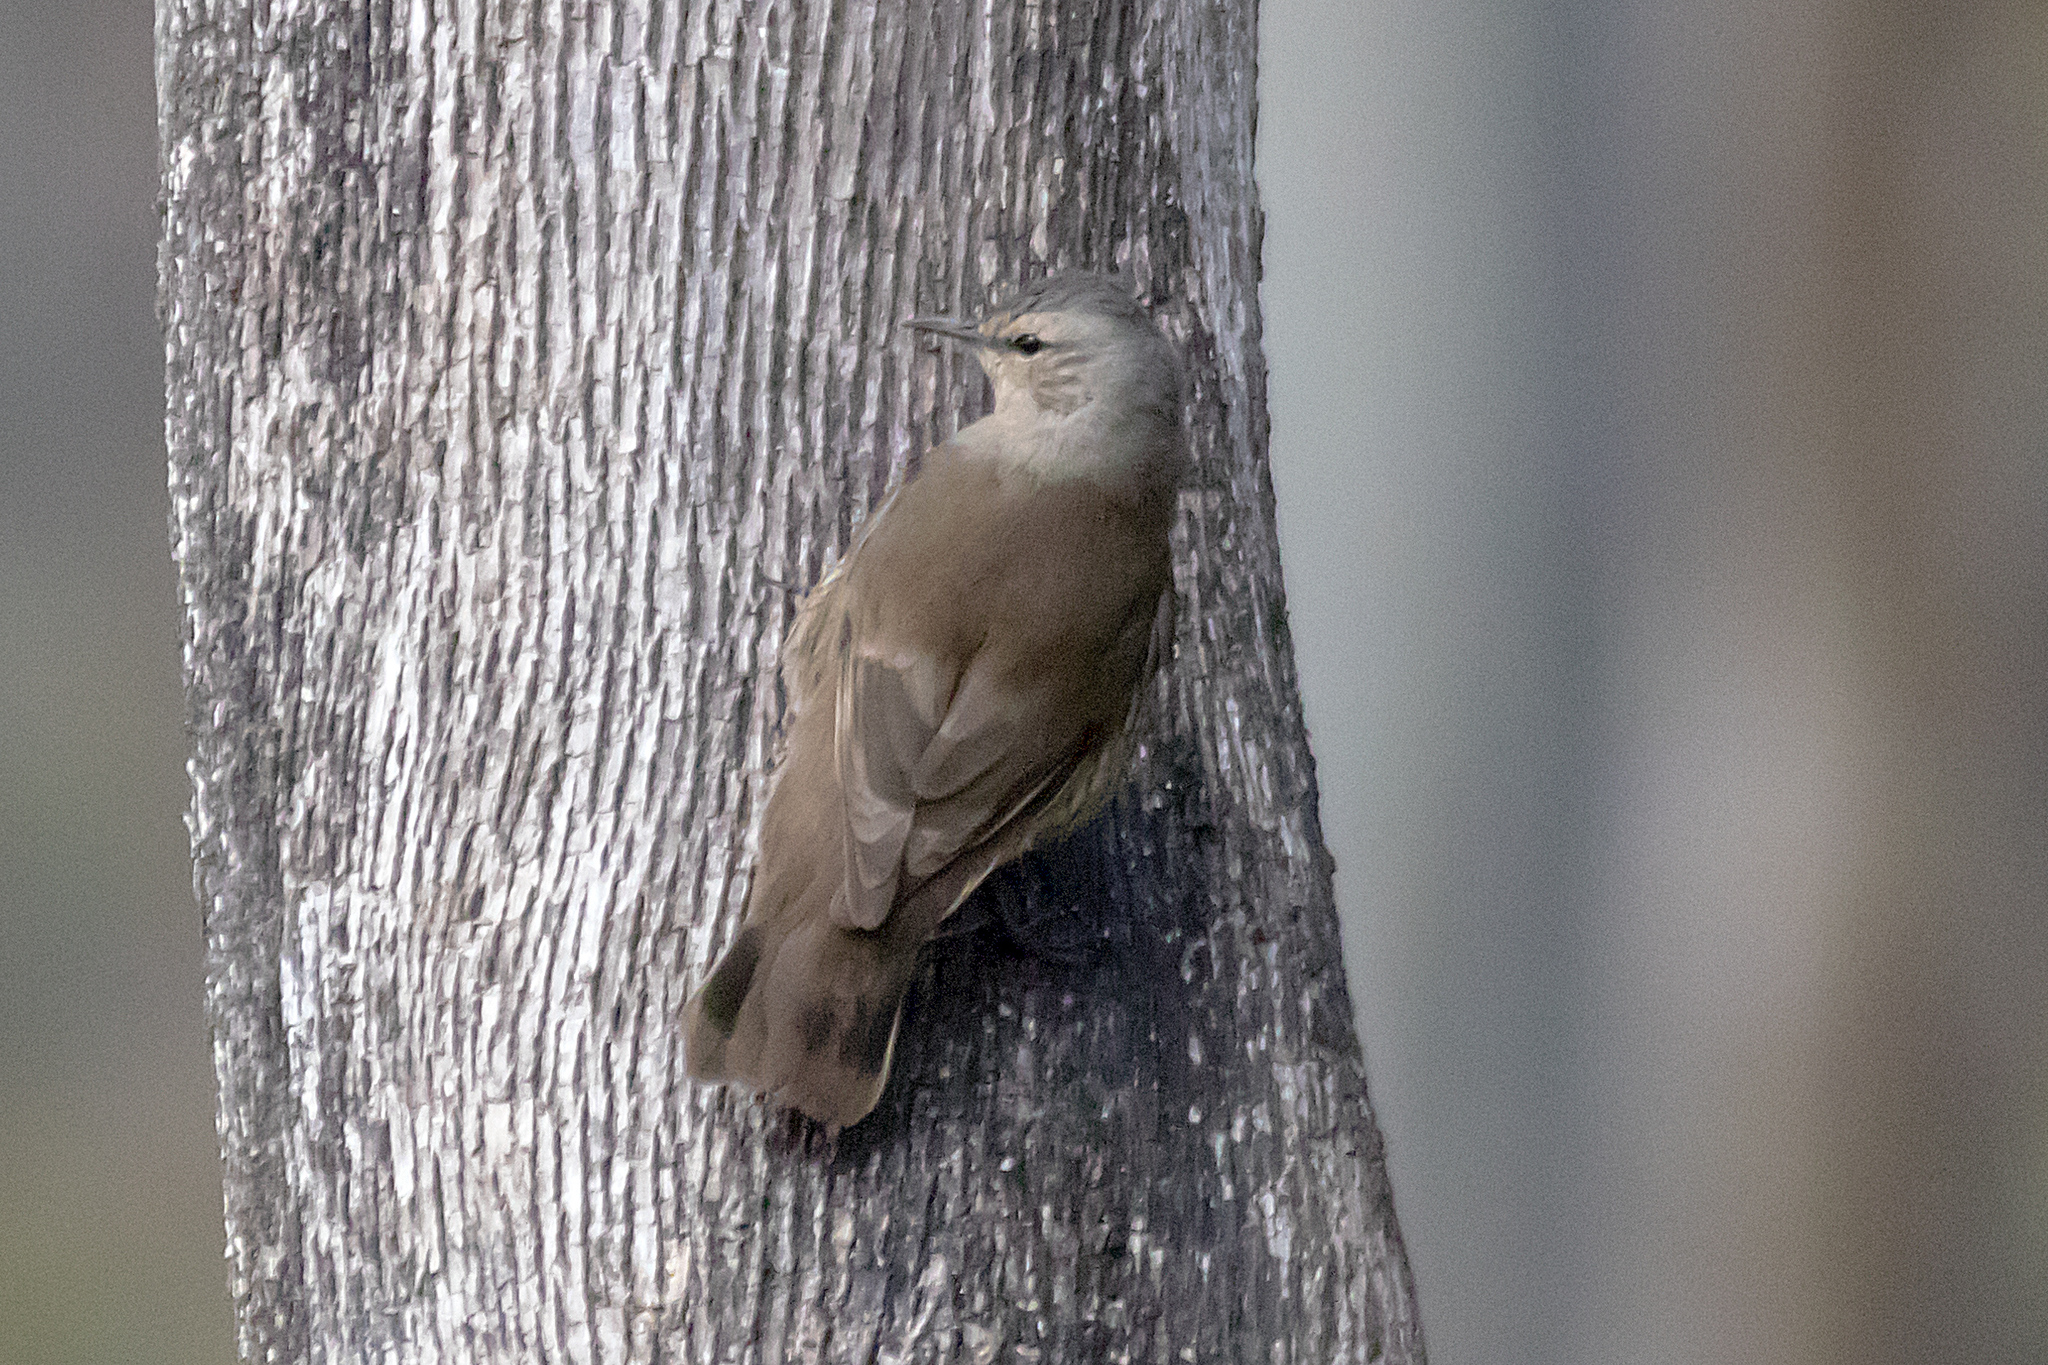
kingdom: Animalia
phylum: Chordata
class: Aves
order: Passeriformes
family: Climacteridae
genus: Climacteris
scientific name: Climacteris picumnus
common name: Brown treecreeper
